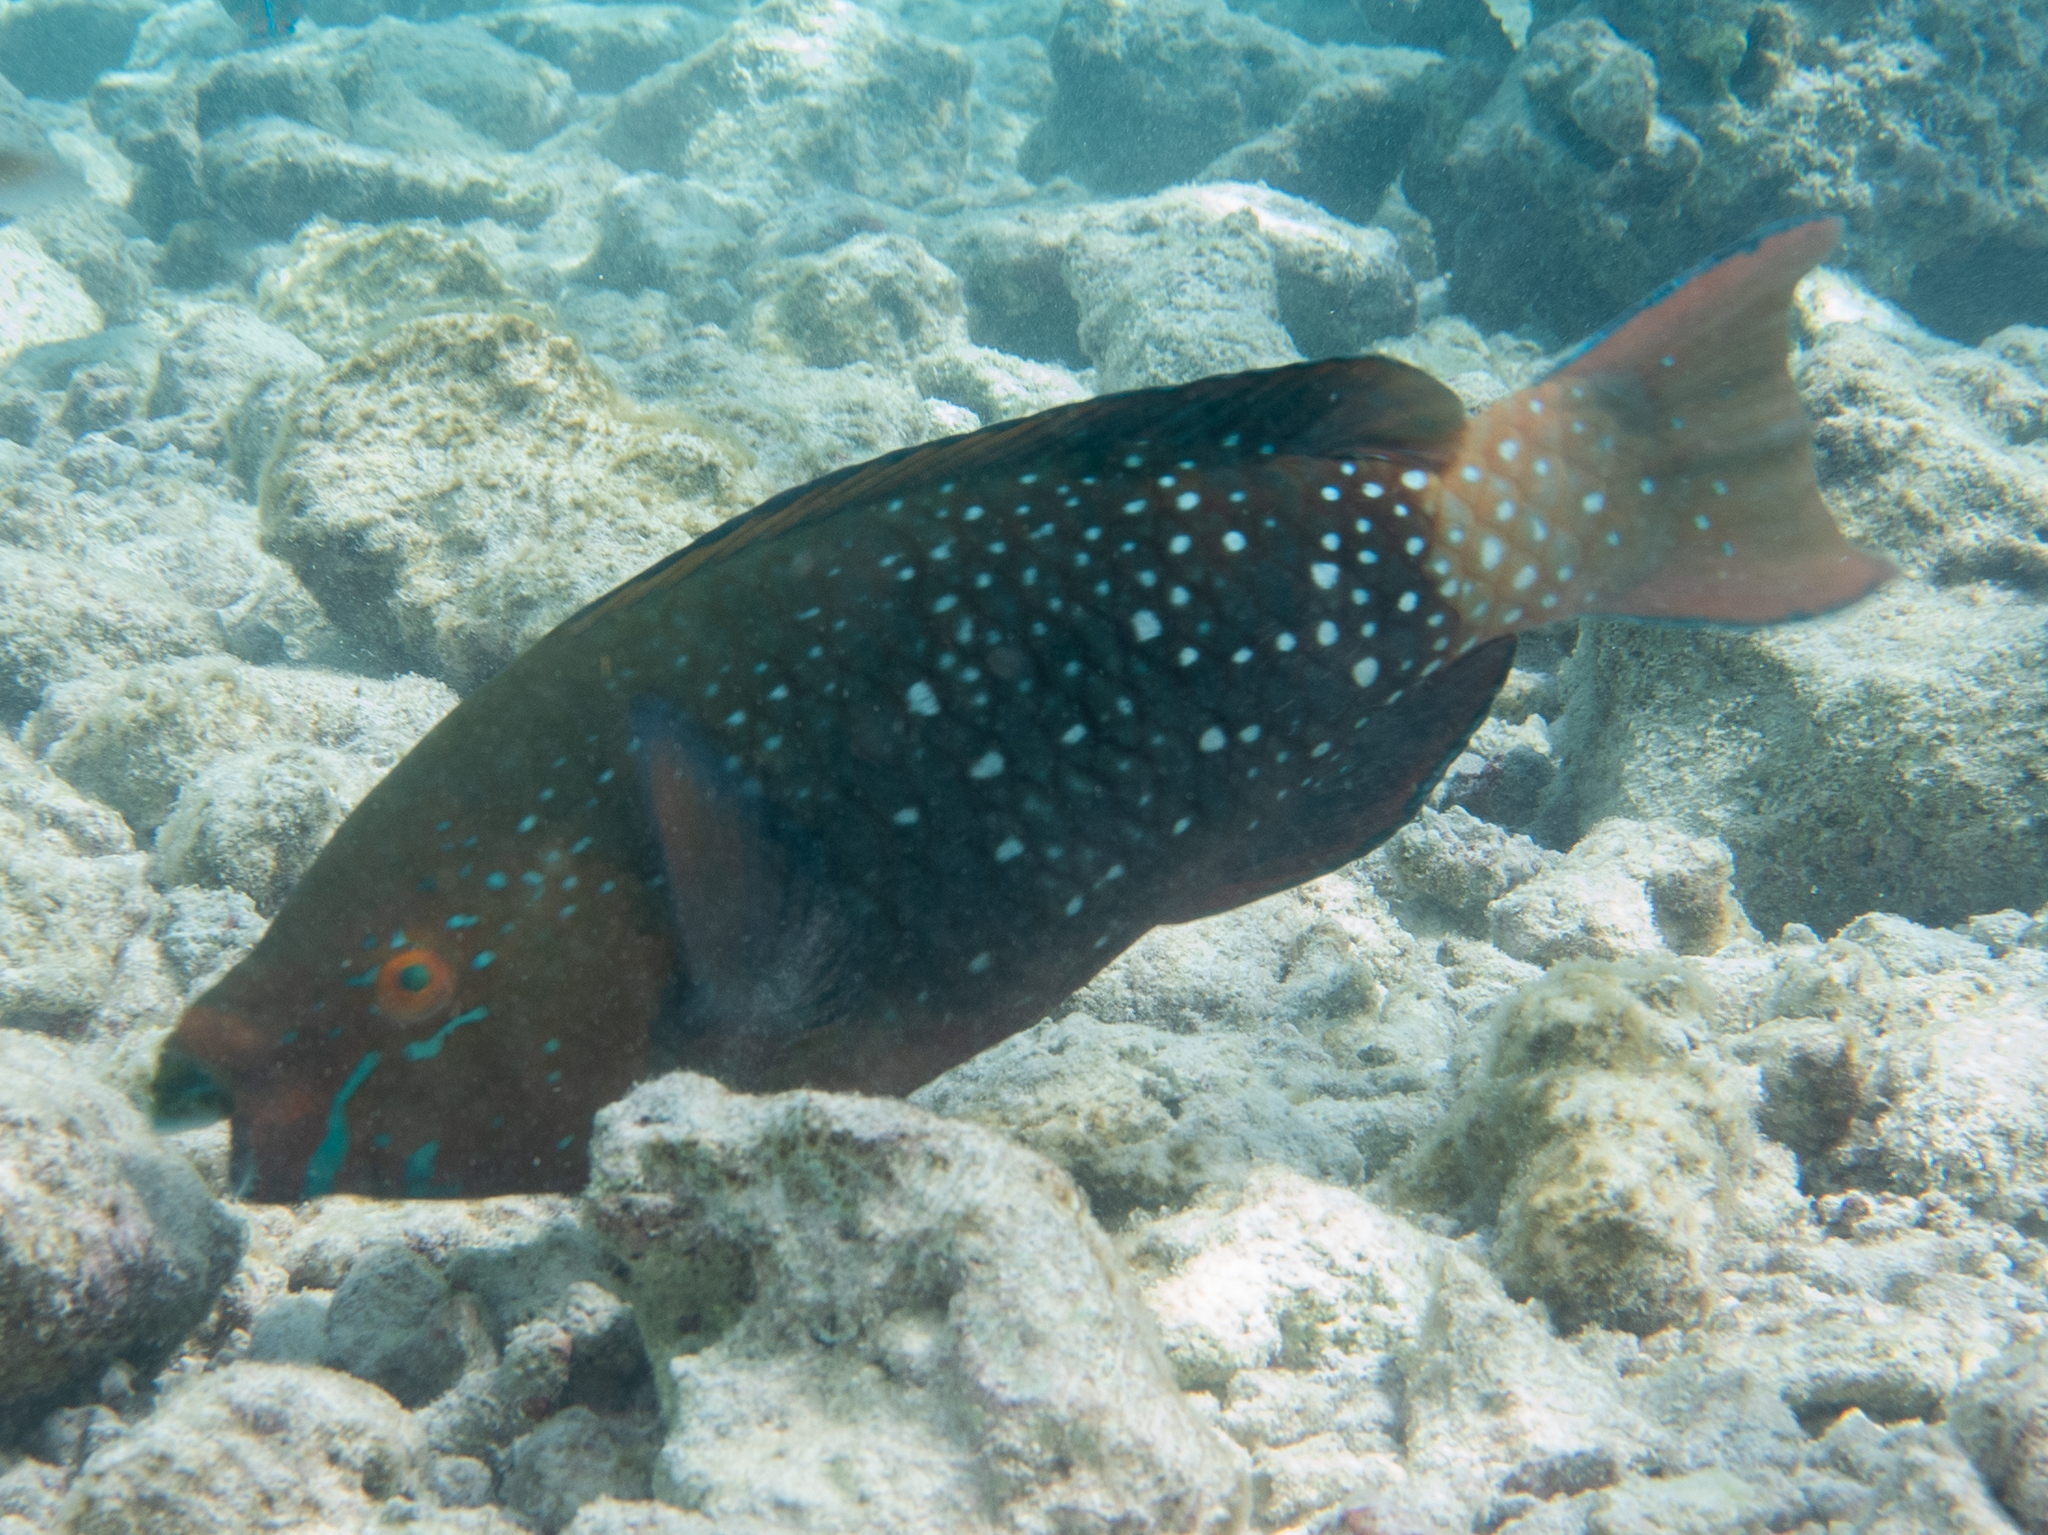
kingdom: Animalia
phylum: Chordata
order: Perciformes
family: Scaridae
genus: Scarus
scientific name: Scarus prasiognathos
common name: Singapore parrotfish
